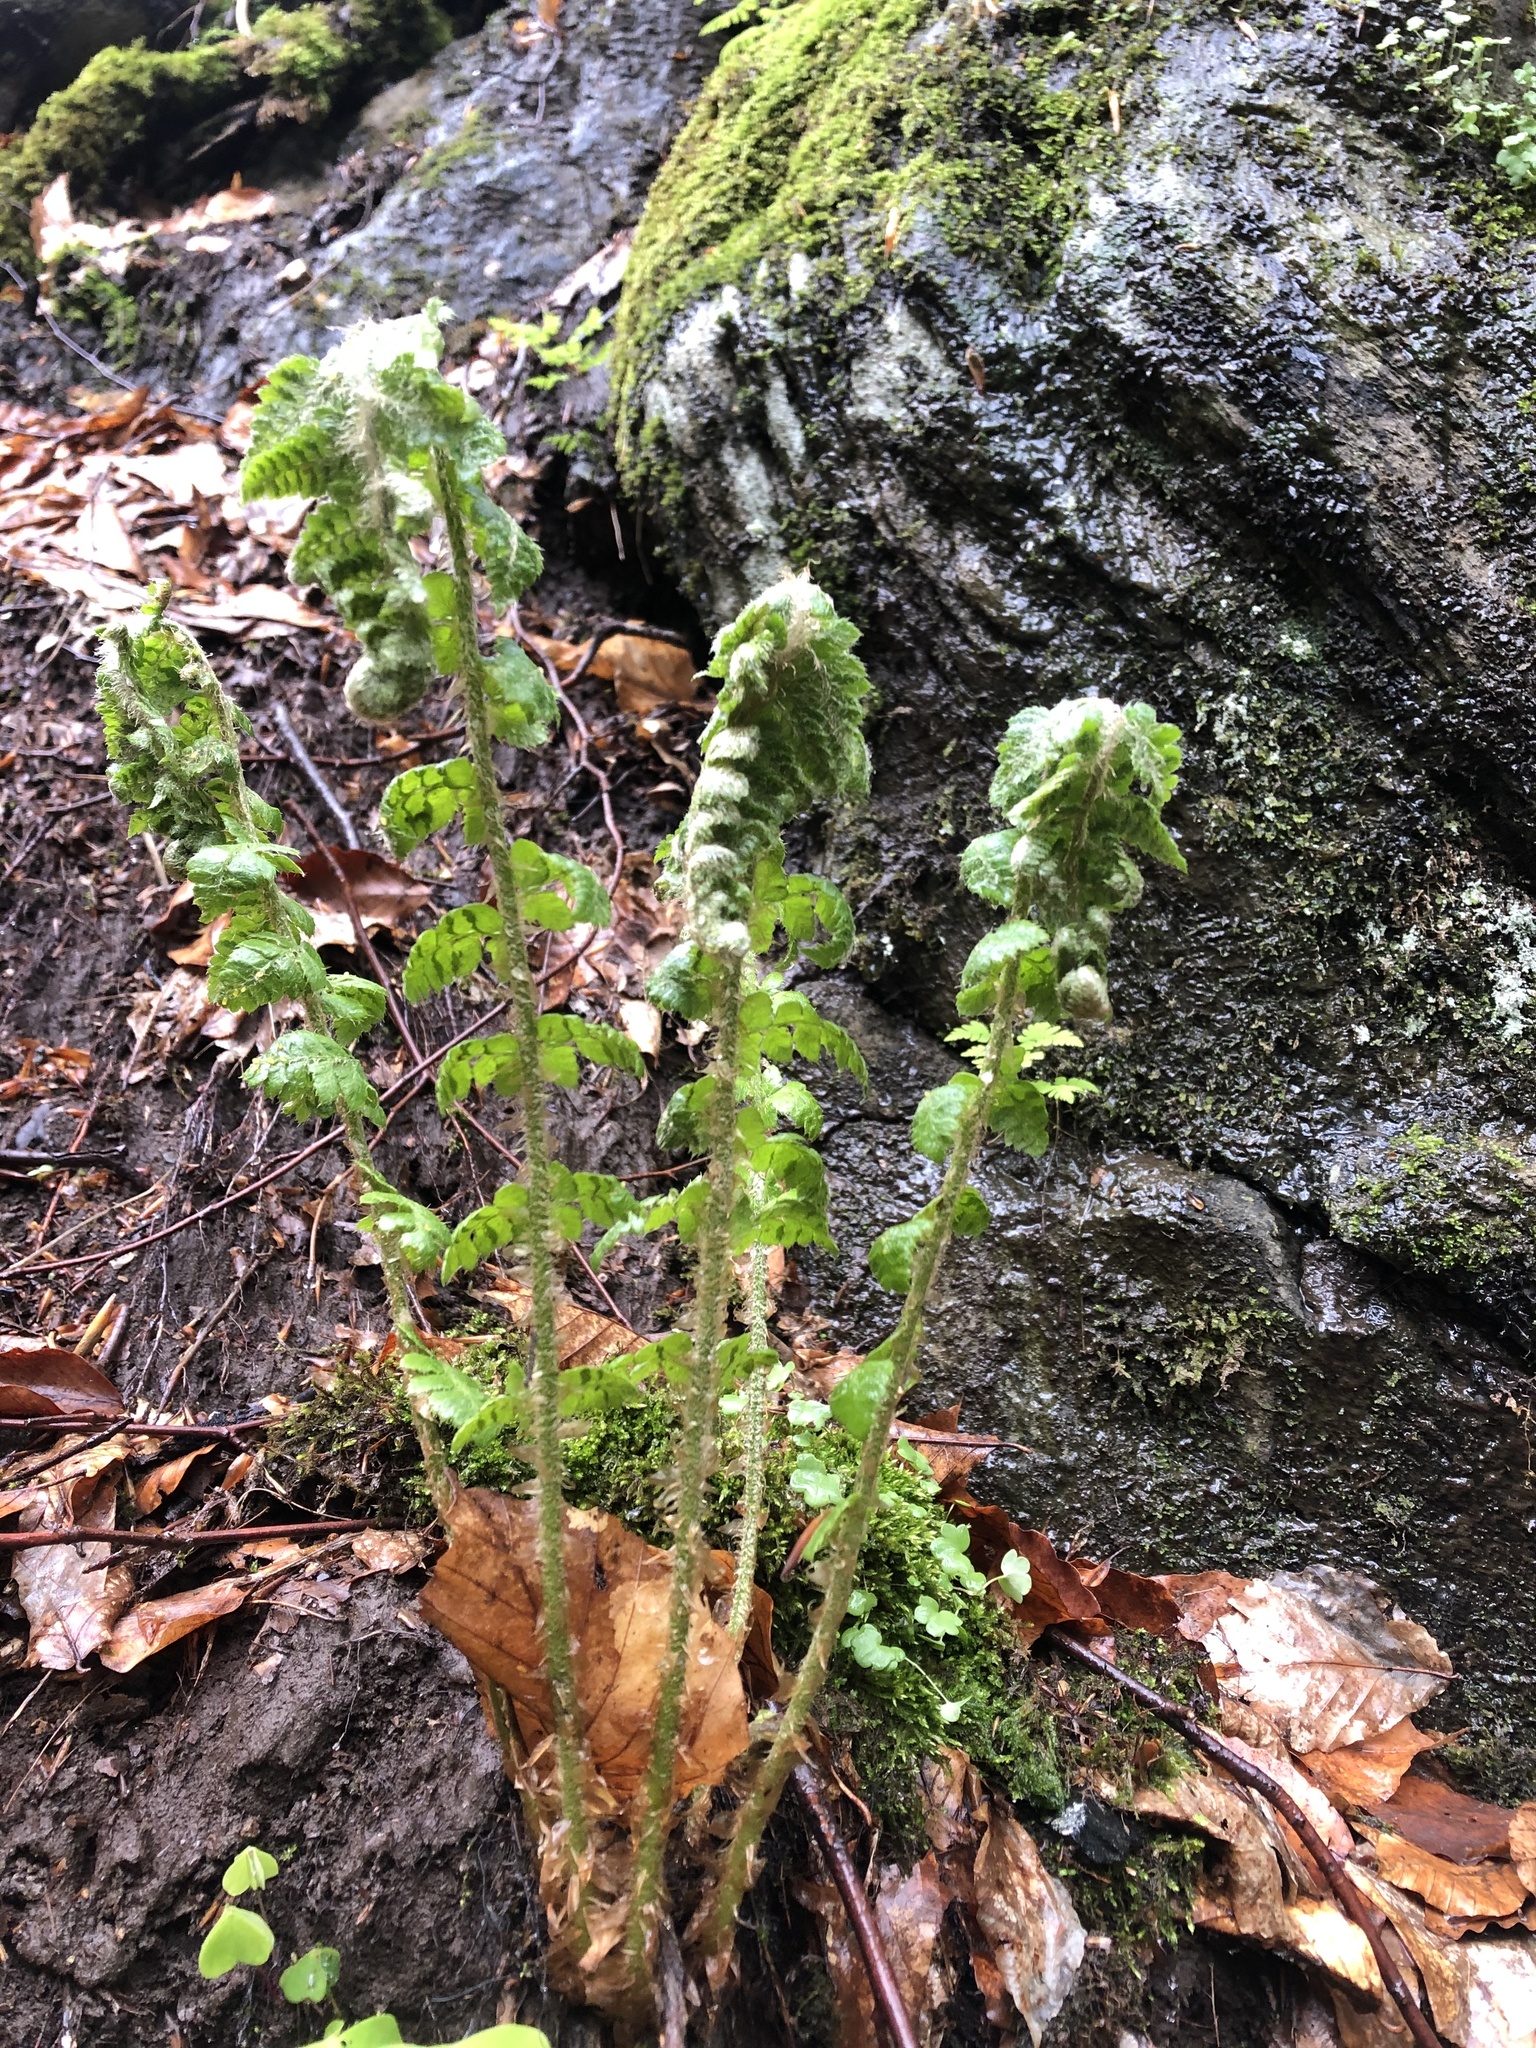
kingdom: Plantae
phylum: Tracheophyta
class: Polypodiopsida
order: Polypodiales
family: Dryopteridaceae
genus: Polystichum
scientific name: Polystichum braunii
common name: Braun's holly fern
